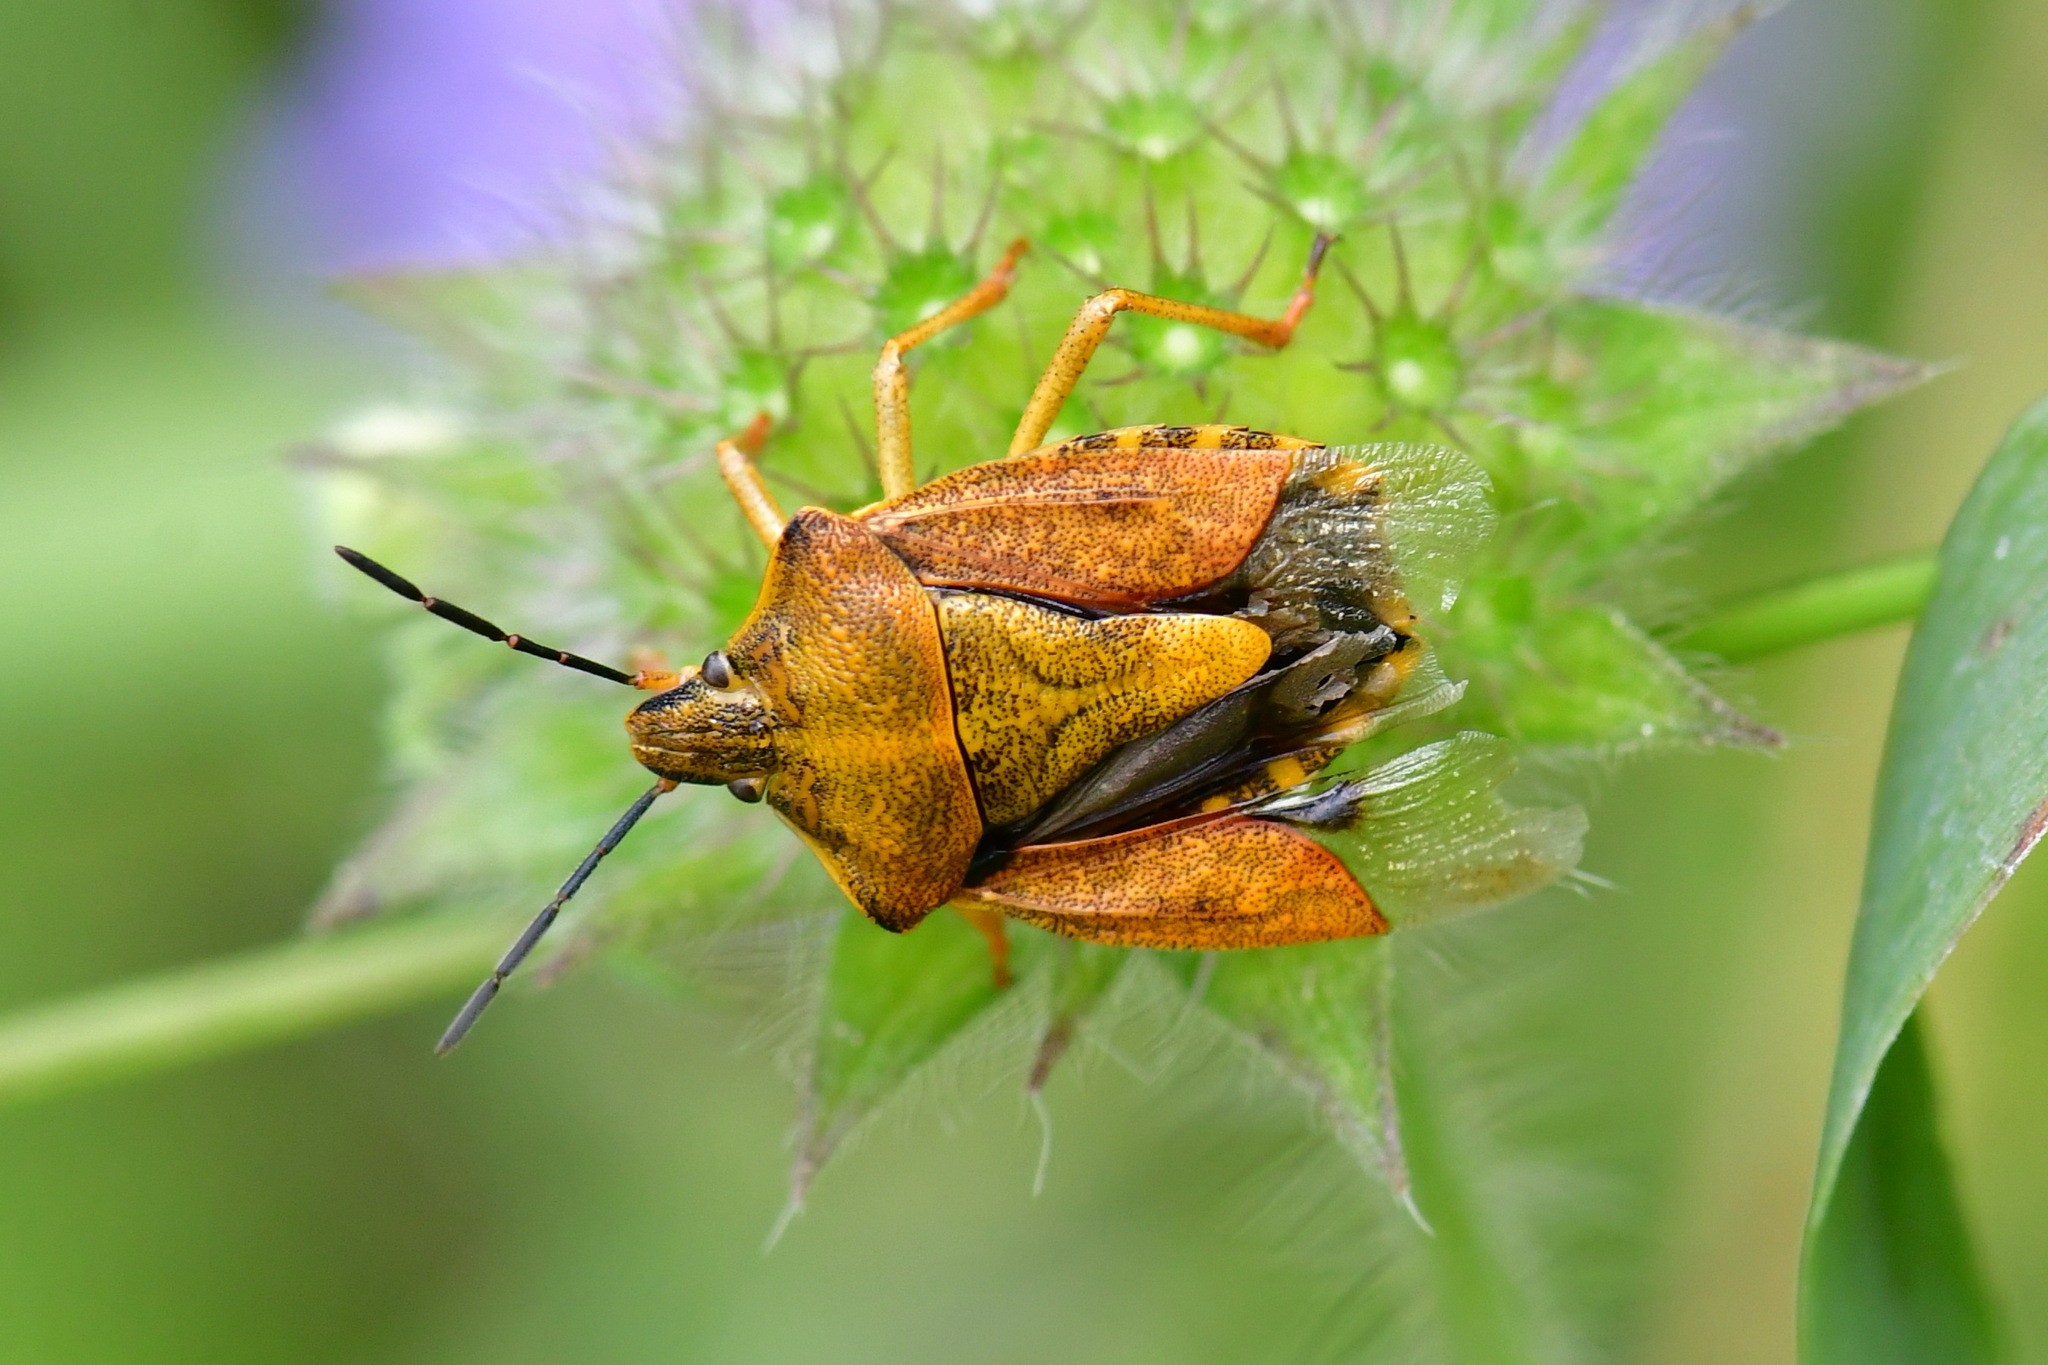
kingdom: Animalia
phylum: Arthropoda
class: Insecta
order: Hemiptera
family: Pentatomidae
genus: Carpocoris
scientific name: Carpocoris purpureipennis
